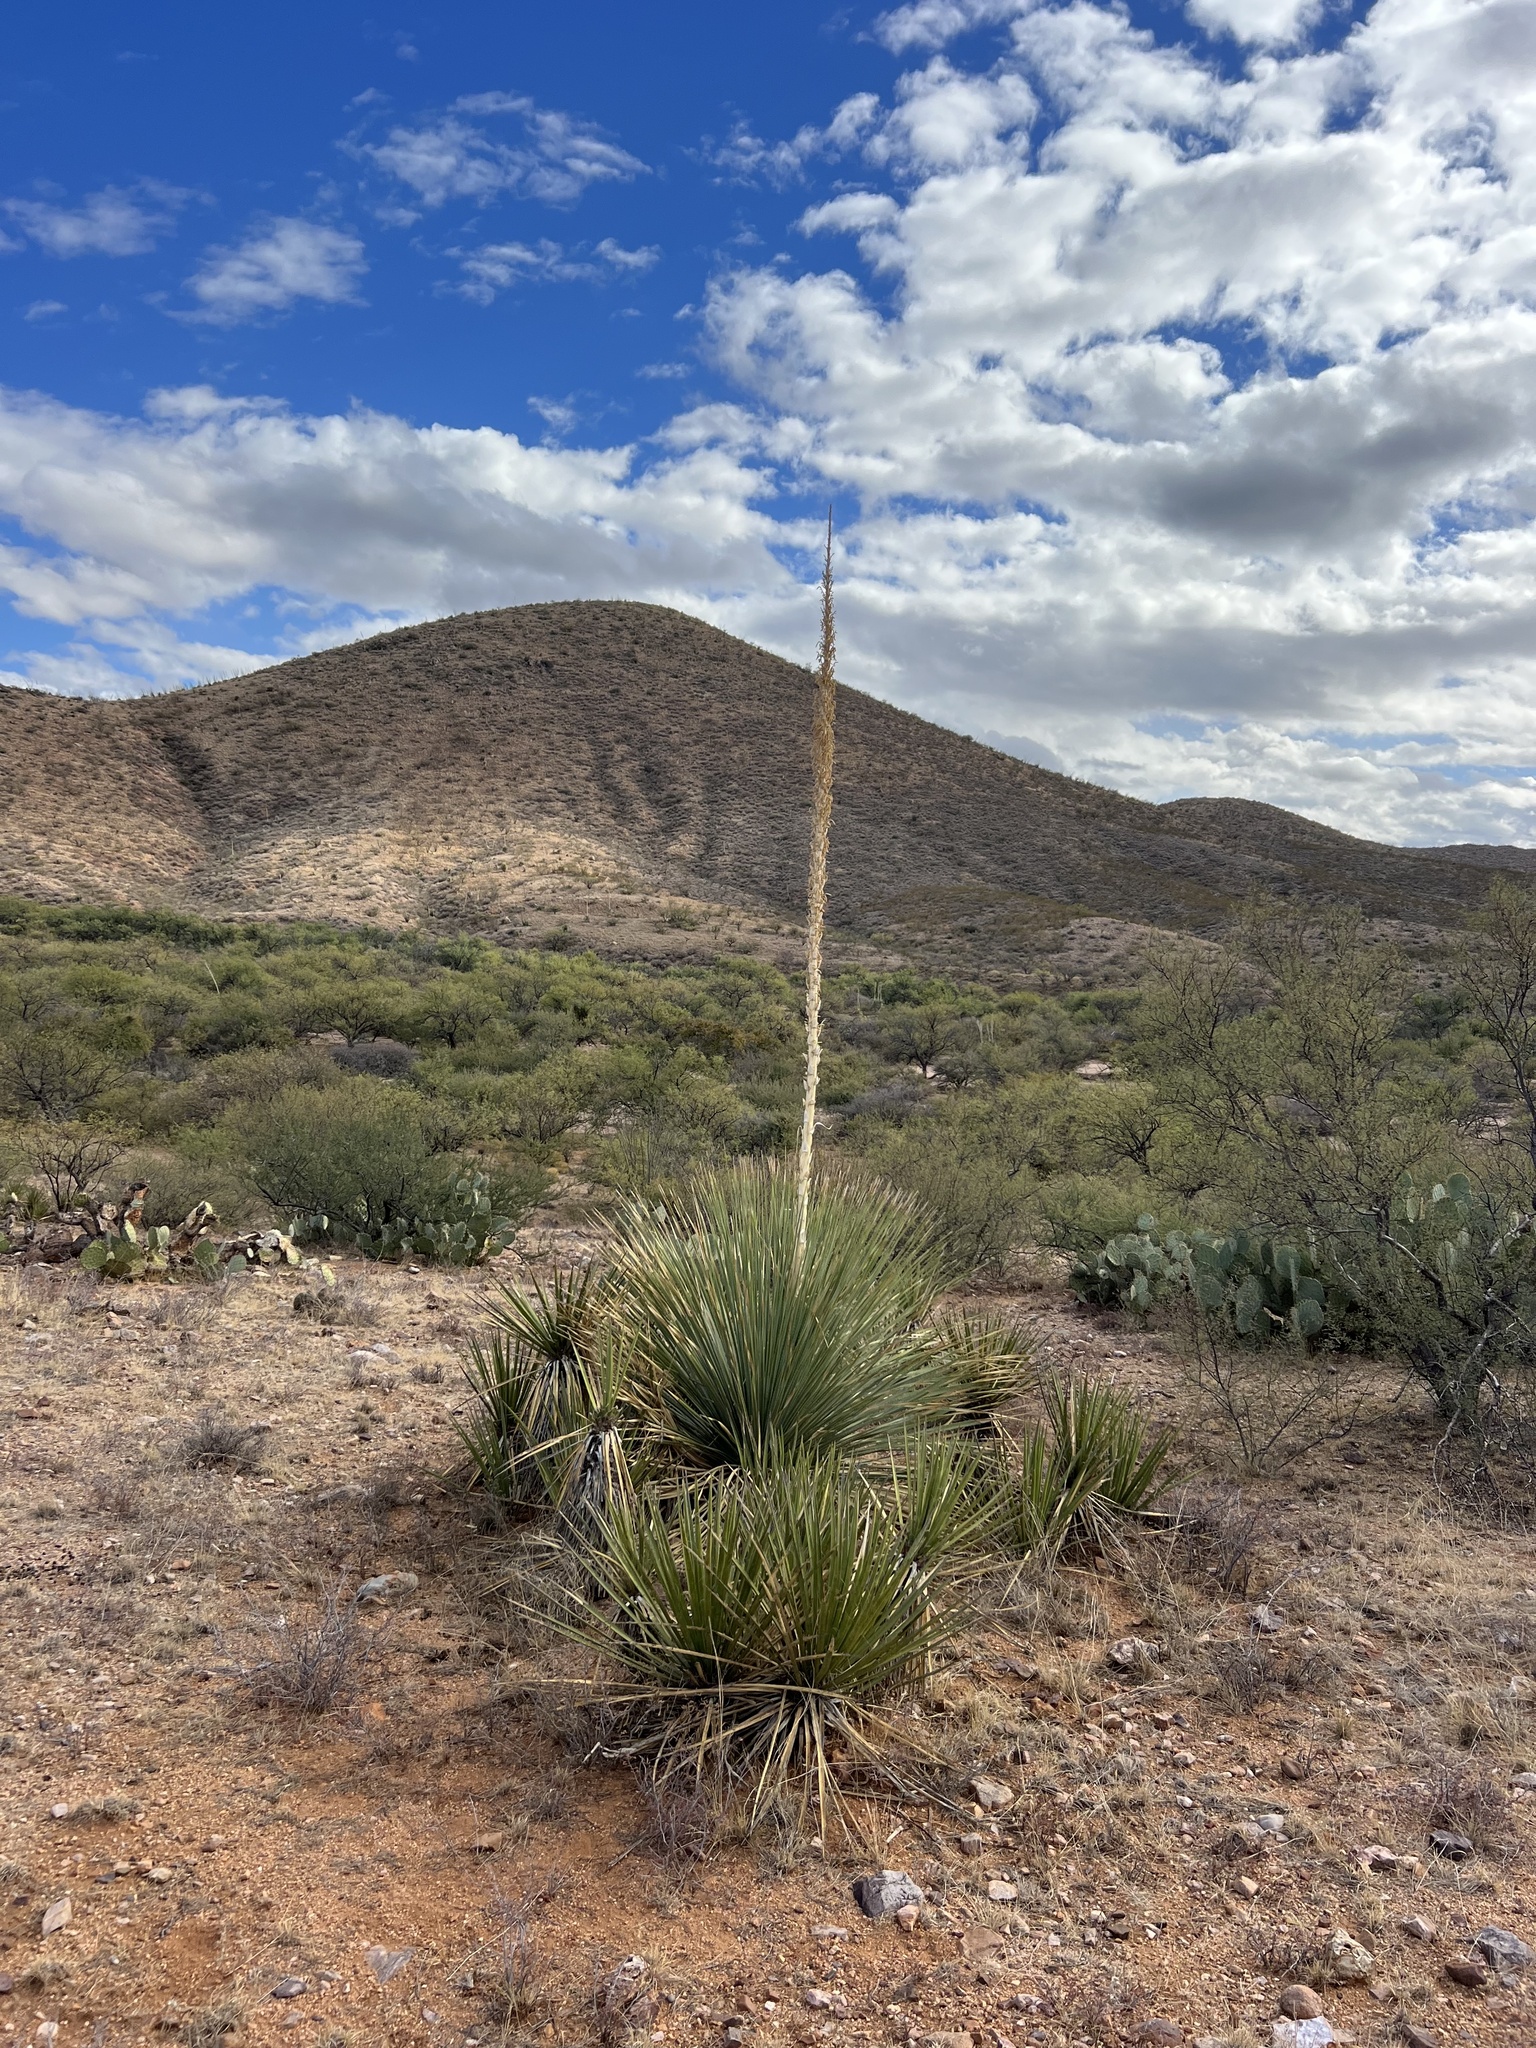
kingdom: Plantae
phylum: Tracheophyta
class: Liliopsida
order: Asparagales
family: Asparagaceae
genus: Dasylirion
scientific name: Dasylirion wheeleri
